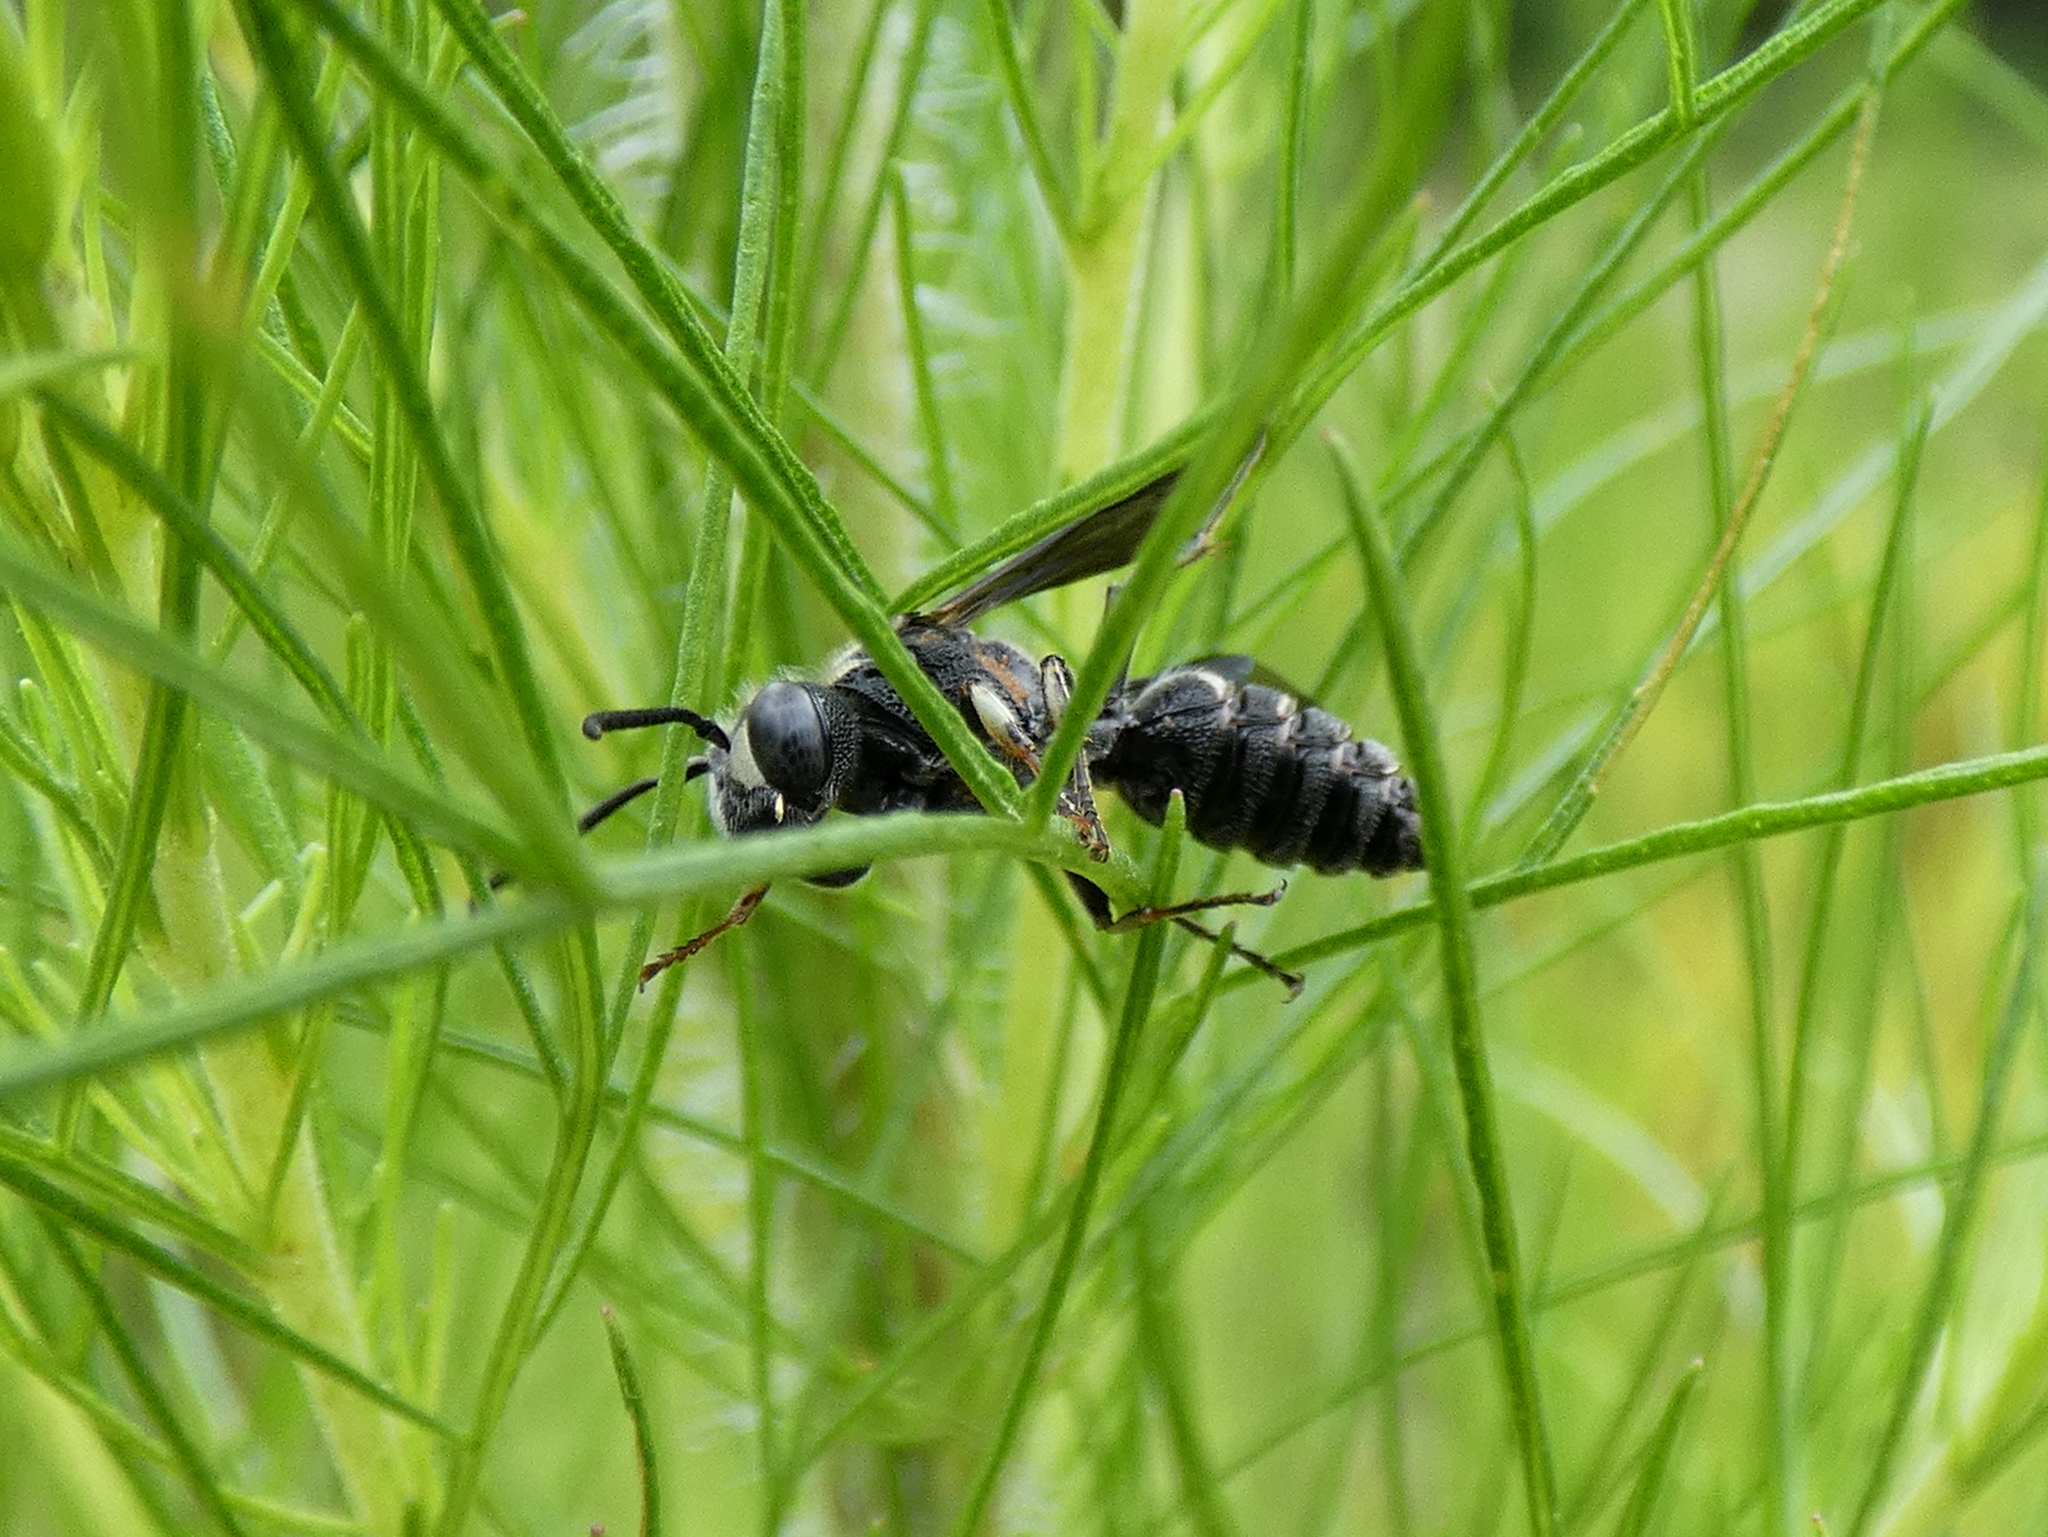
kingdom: Animalia
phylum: Arthropoda
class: Insecta
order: Hymenoptera
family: Crabronidae
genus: Cerceris
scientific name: Cerceris fumipennis
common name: Smokey-winged beetle bandit wasp
